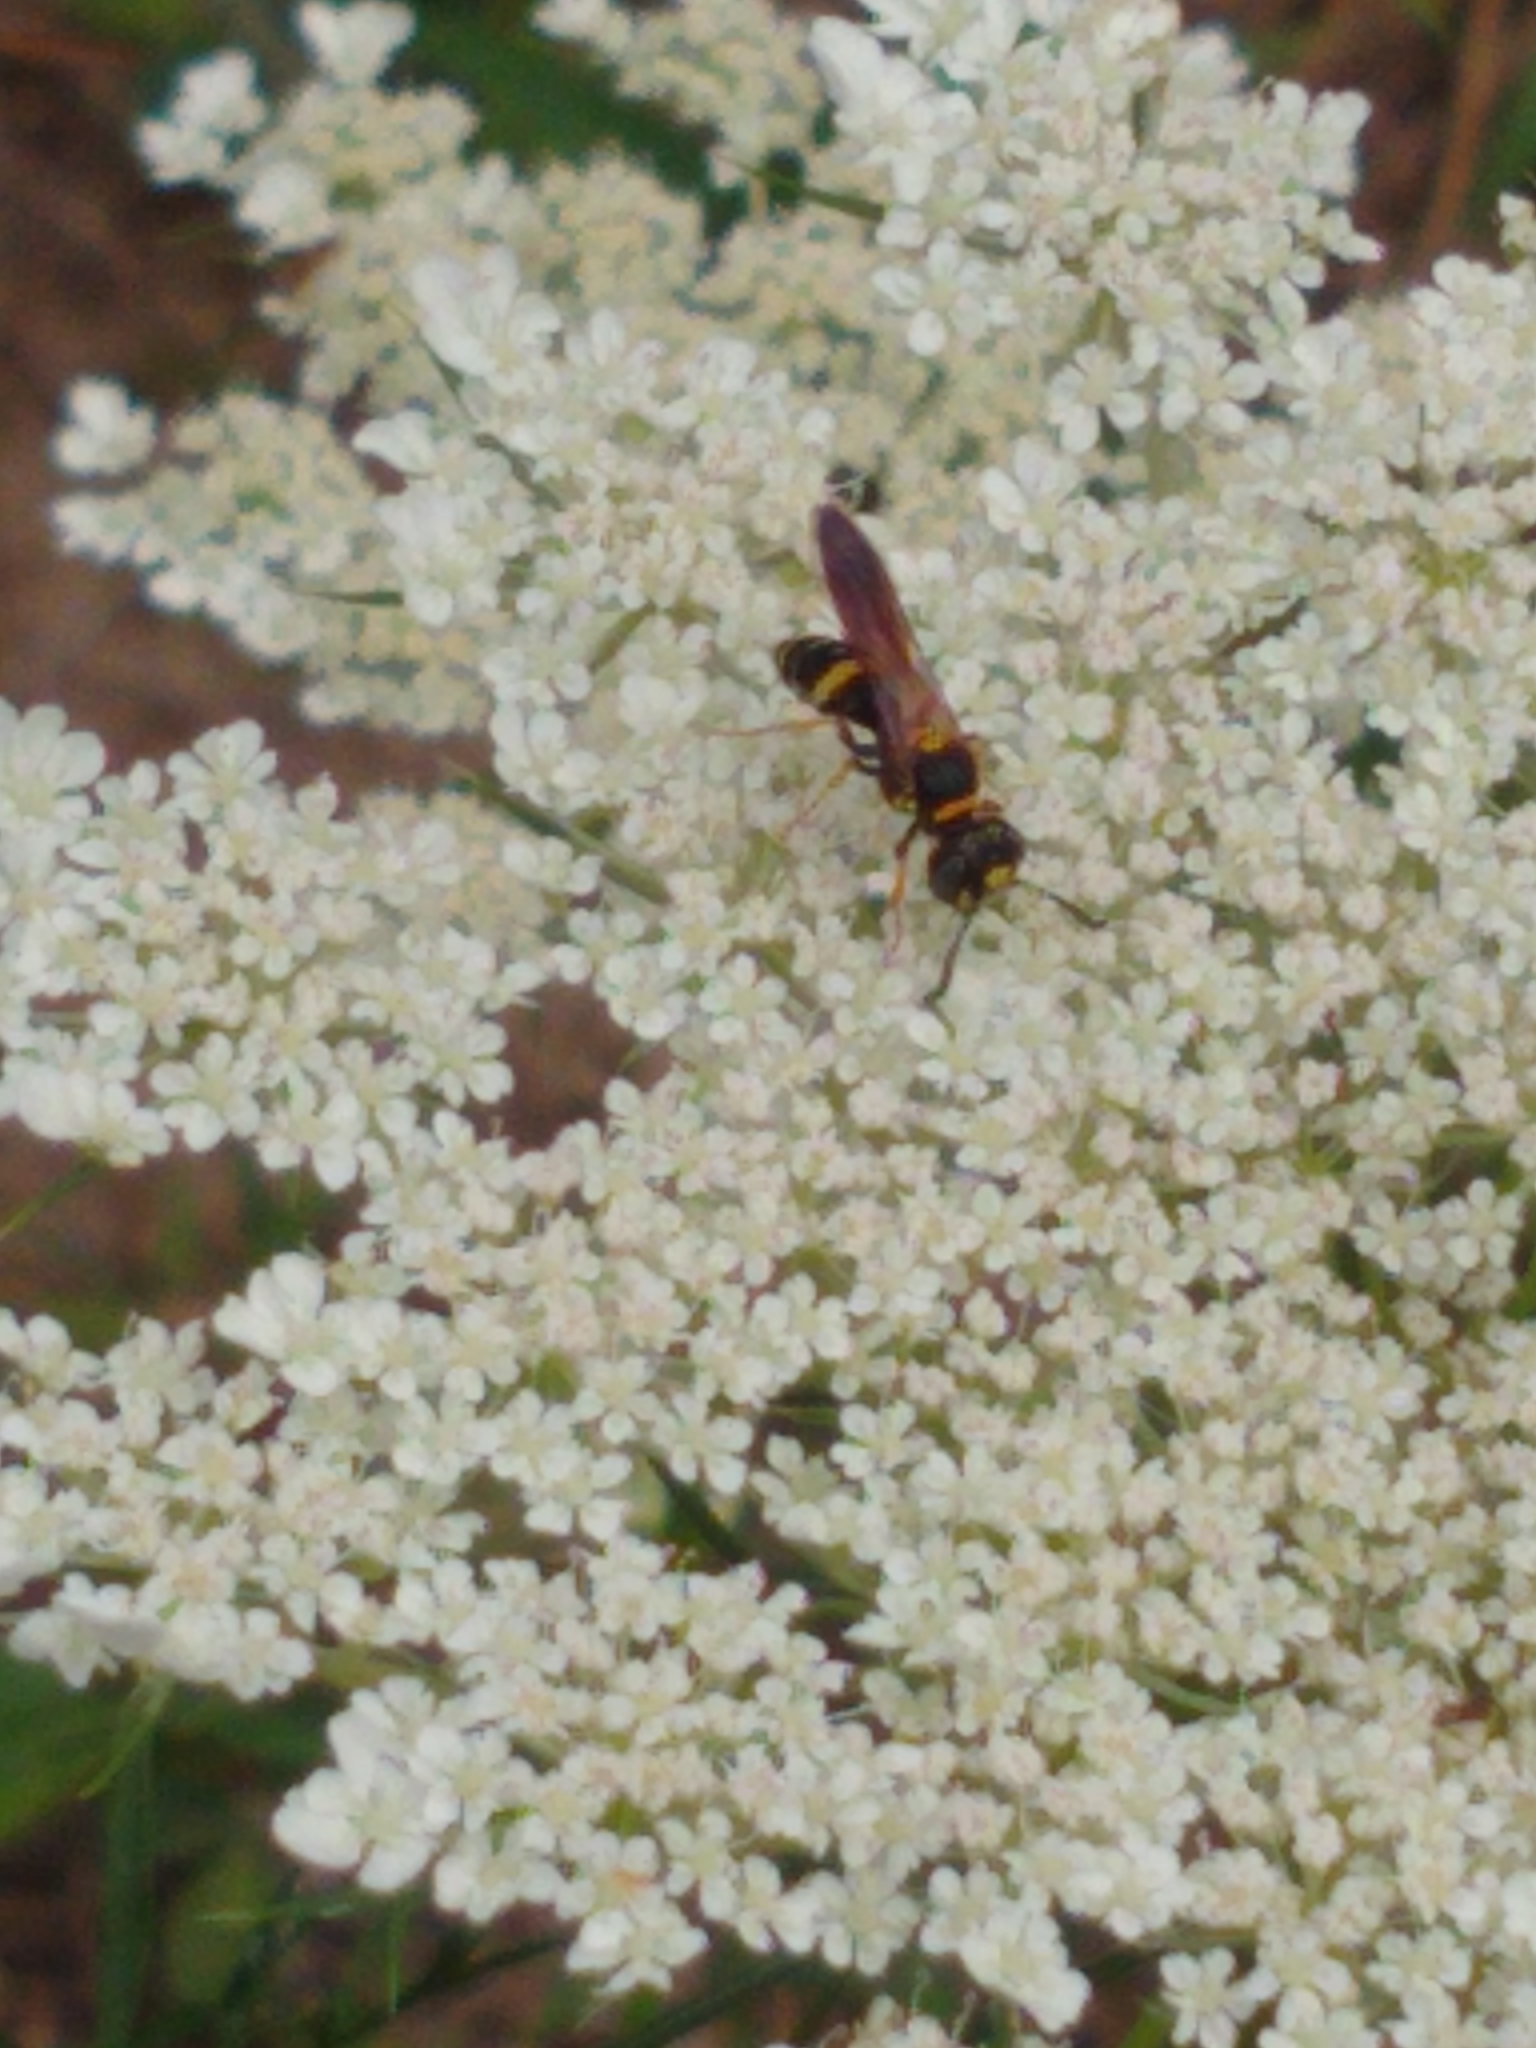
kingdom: Animalia
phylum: Arthropoda
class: Insecta
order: Hymenoptera
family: Crabronidae
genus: Philanthus
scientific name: Philanthus gibbosus
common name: Humped beewolf
